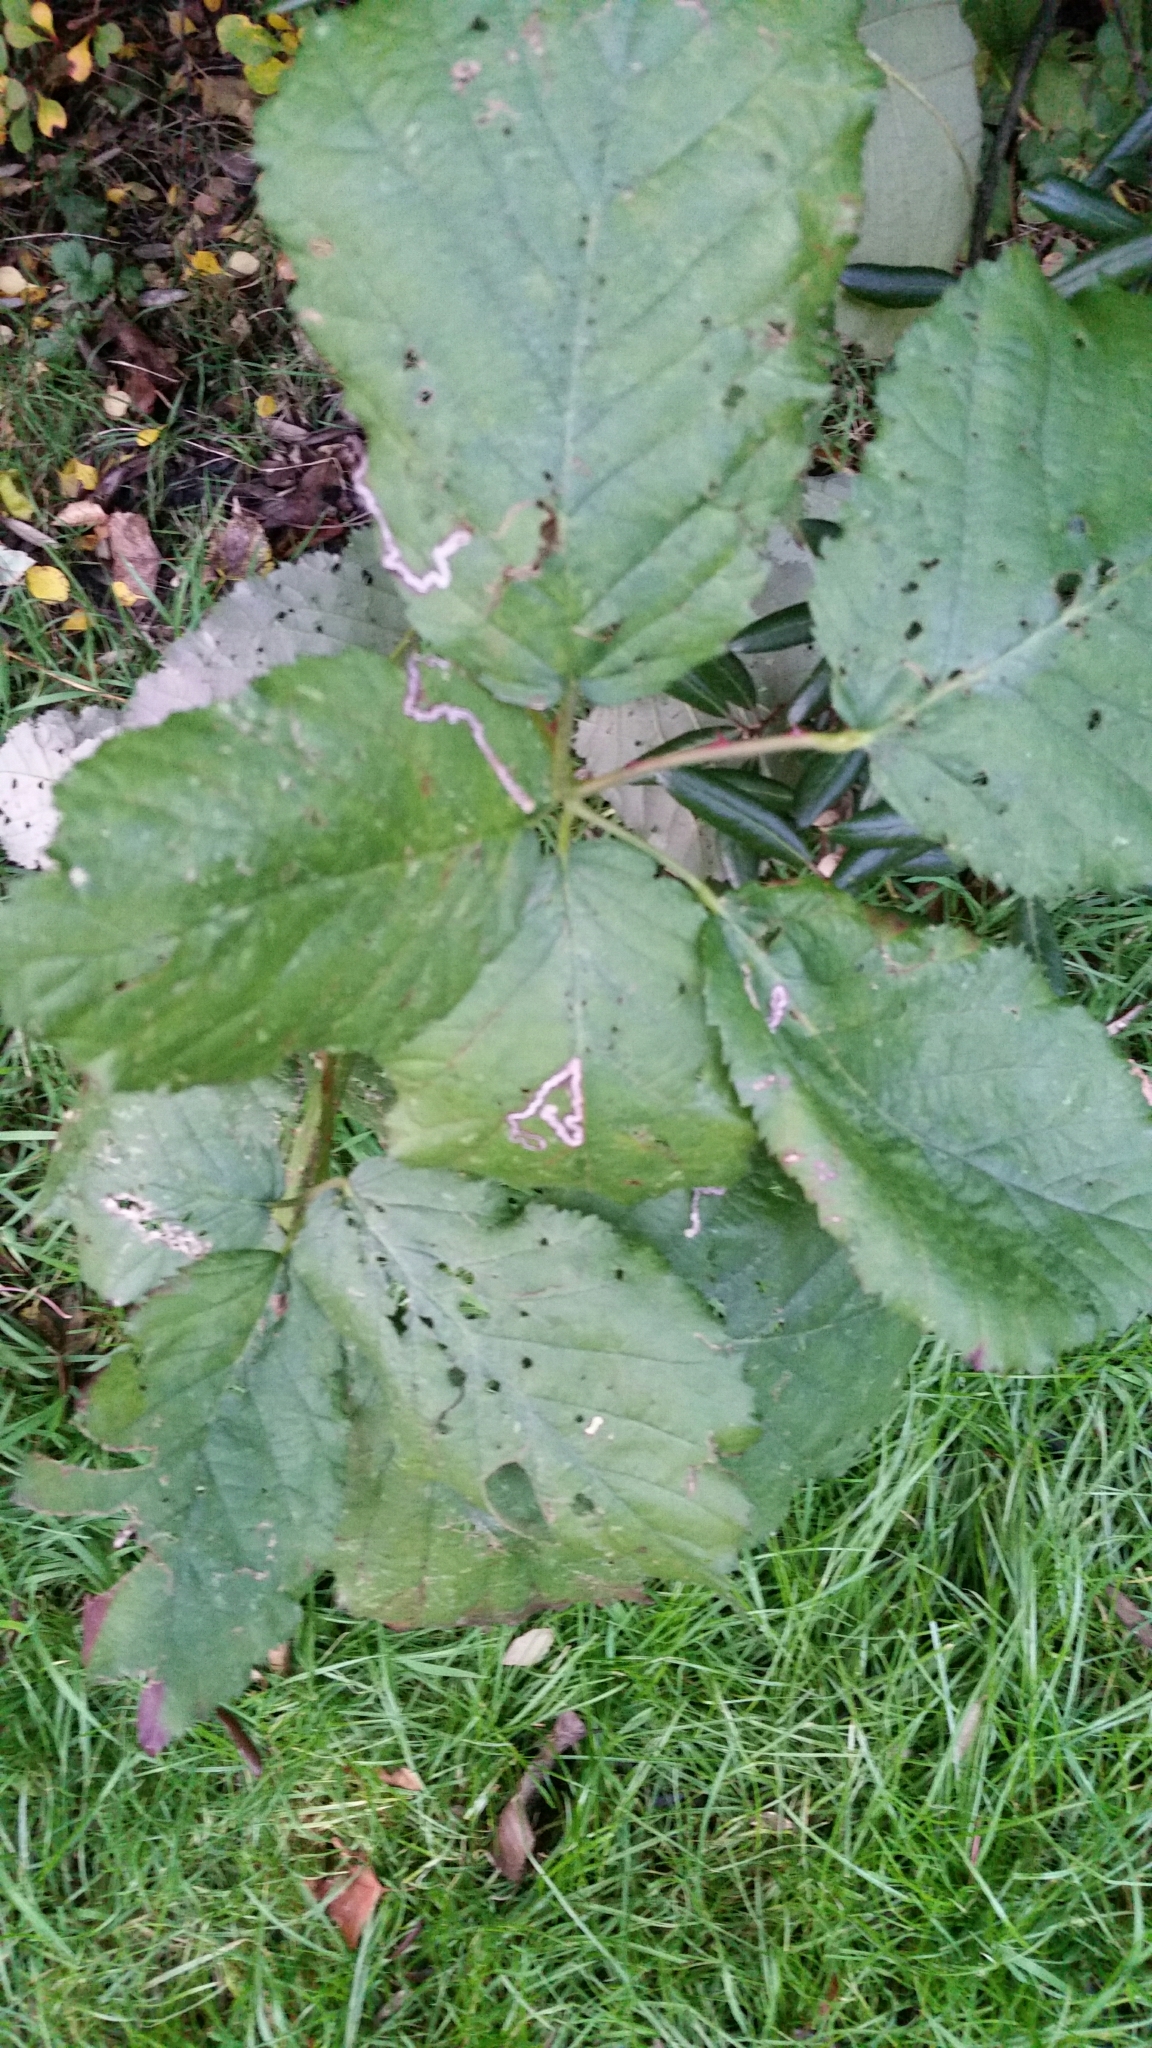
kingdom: Animalia
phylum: Arthropoda
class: Insecta
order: Lepidoptera
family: Nepticulidae
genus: Stigmella
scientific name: Stigmella aurella
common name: Golden pigmy
